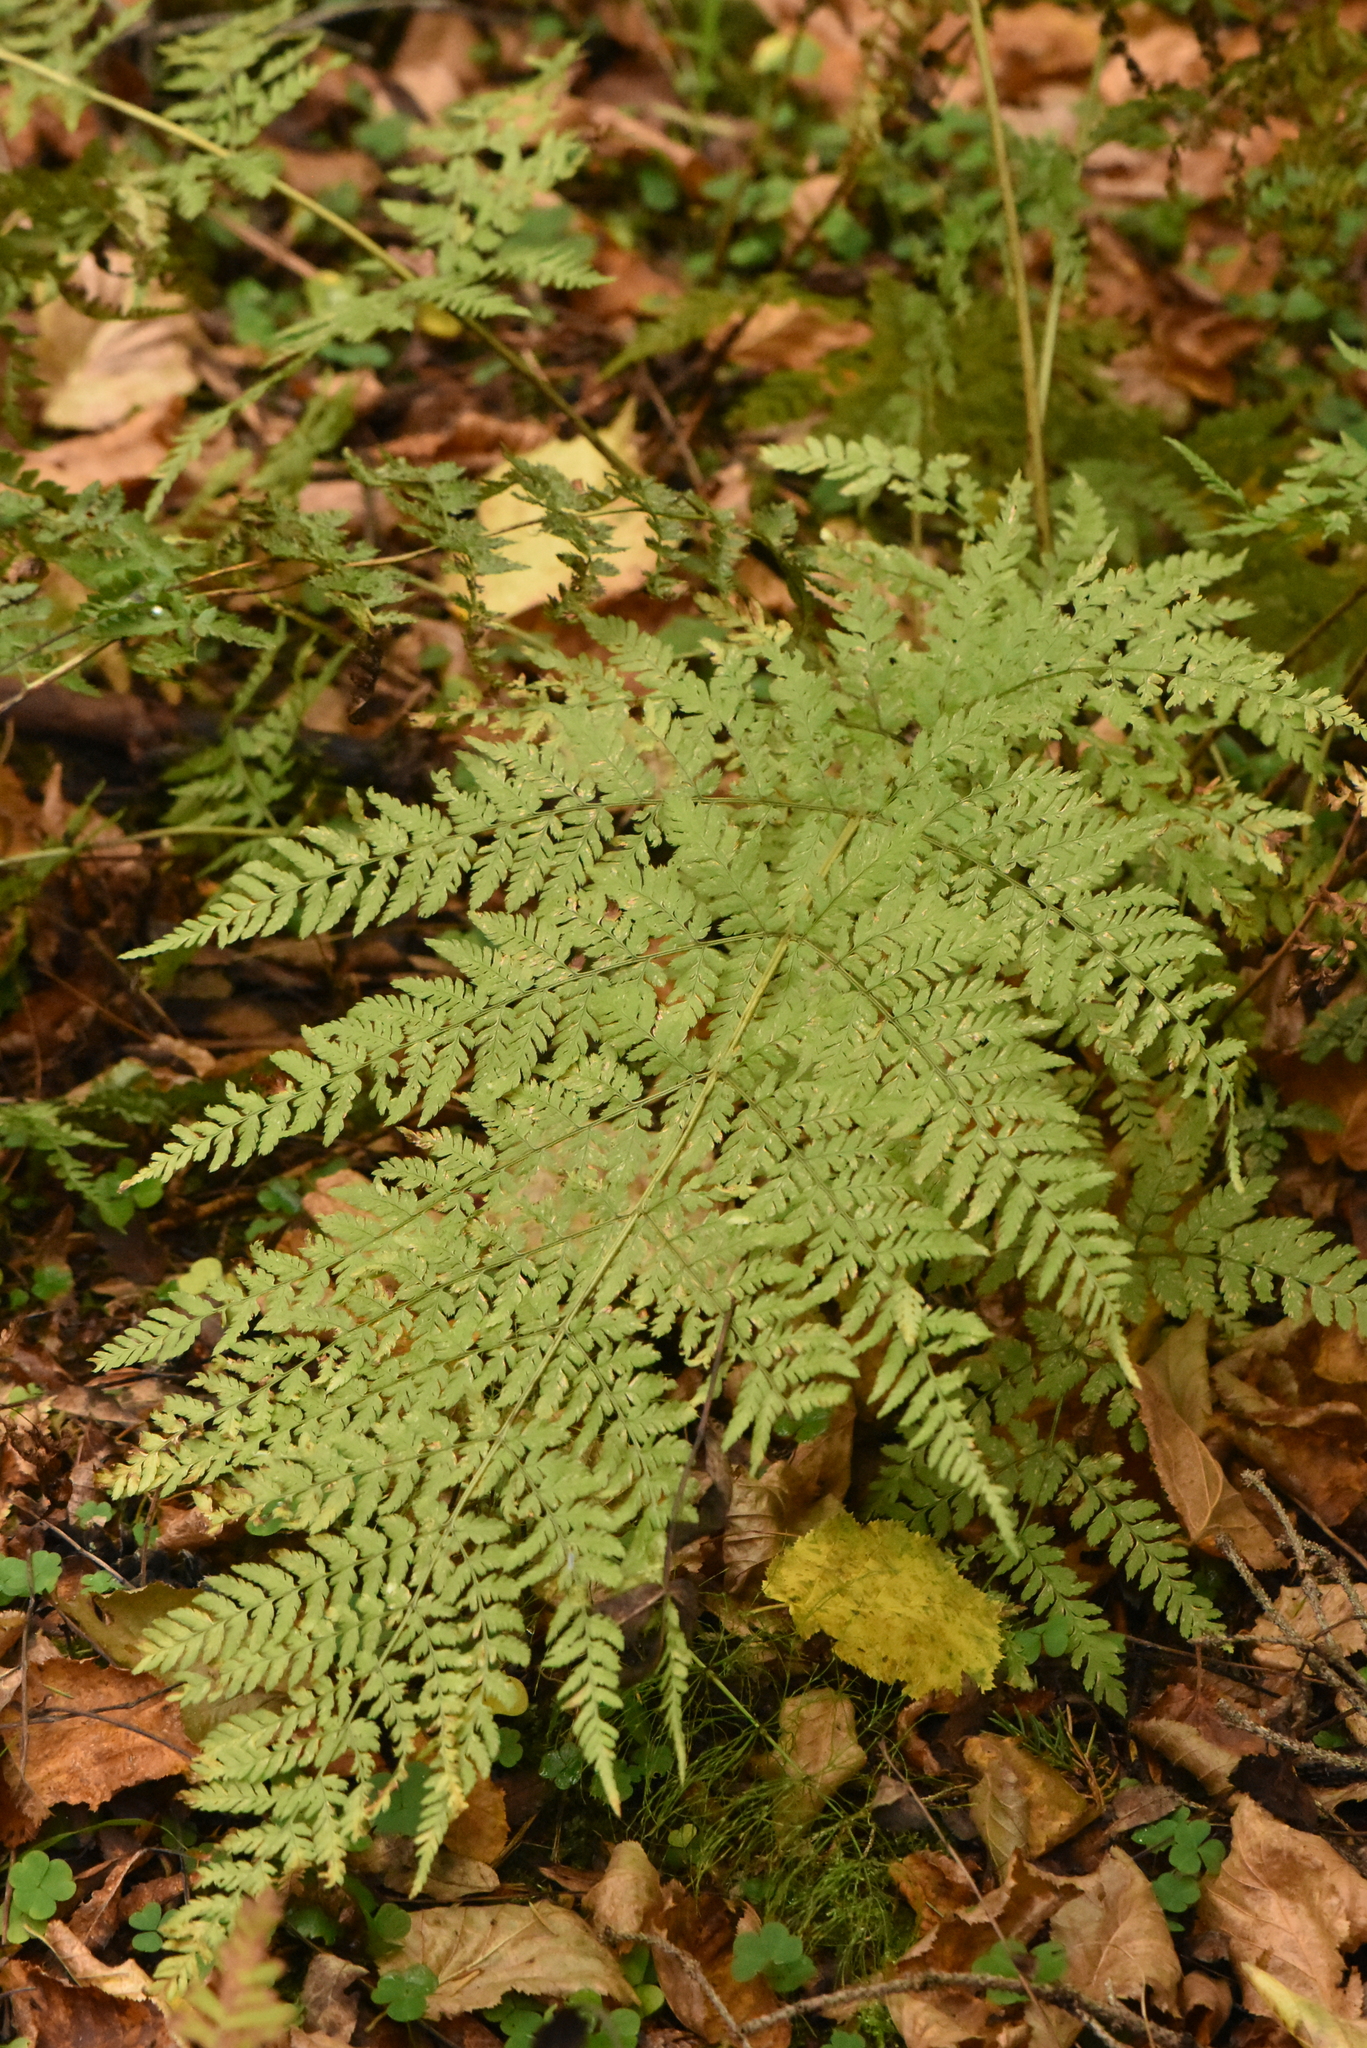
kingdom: Plantae
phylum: Tracheophyta
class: Polypodiopsida
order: Polypodiales
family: Dryopteridaceae
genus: Dryopteris
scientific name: Dryopteris expansa
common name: Northern buckler fern
